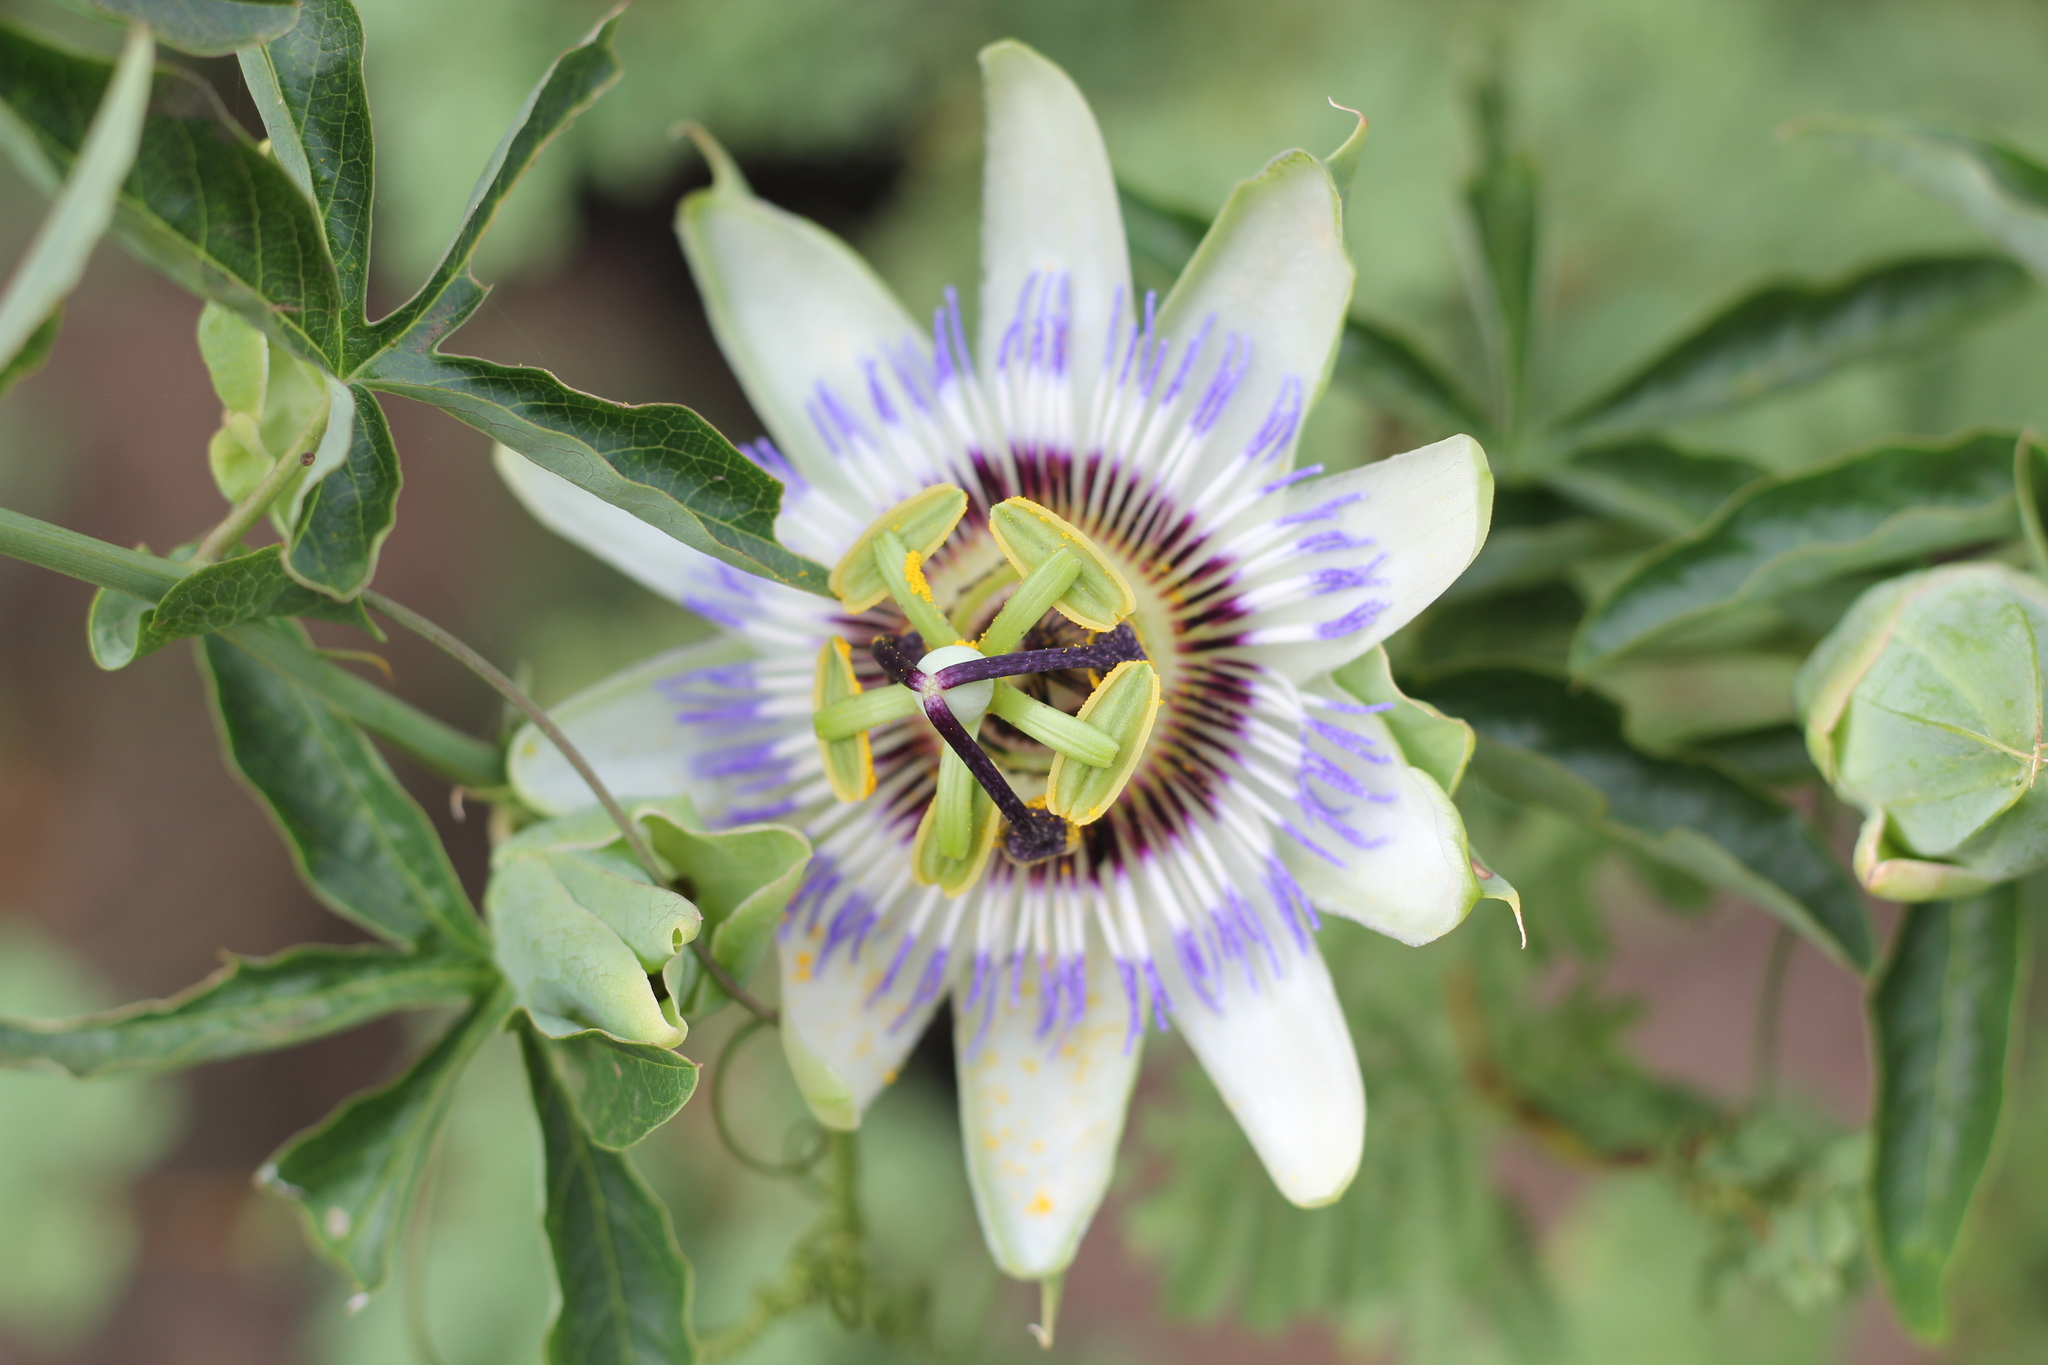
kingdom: Plantae
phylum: Tracheophyta
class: Magnoliopsida
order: Malpighiales
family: Passifloraceae
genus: Passiflora
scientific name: Passiflora caerulea
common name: Blue passionflower
